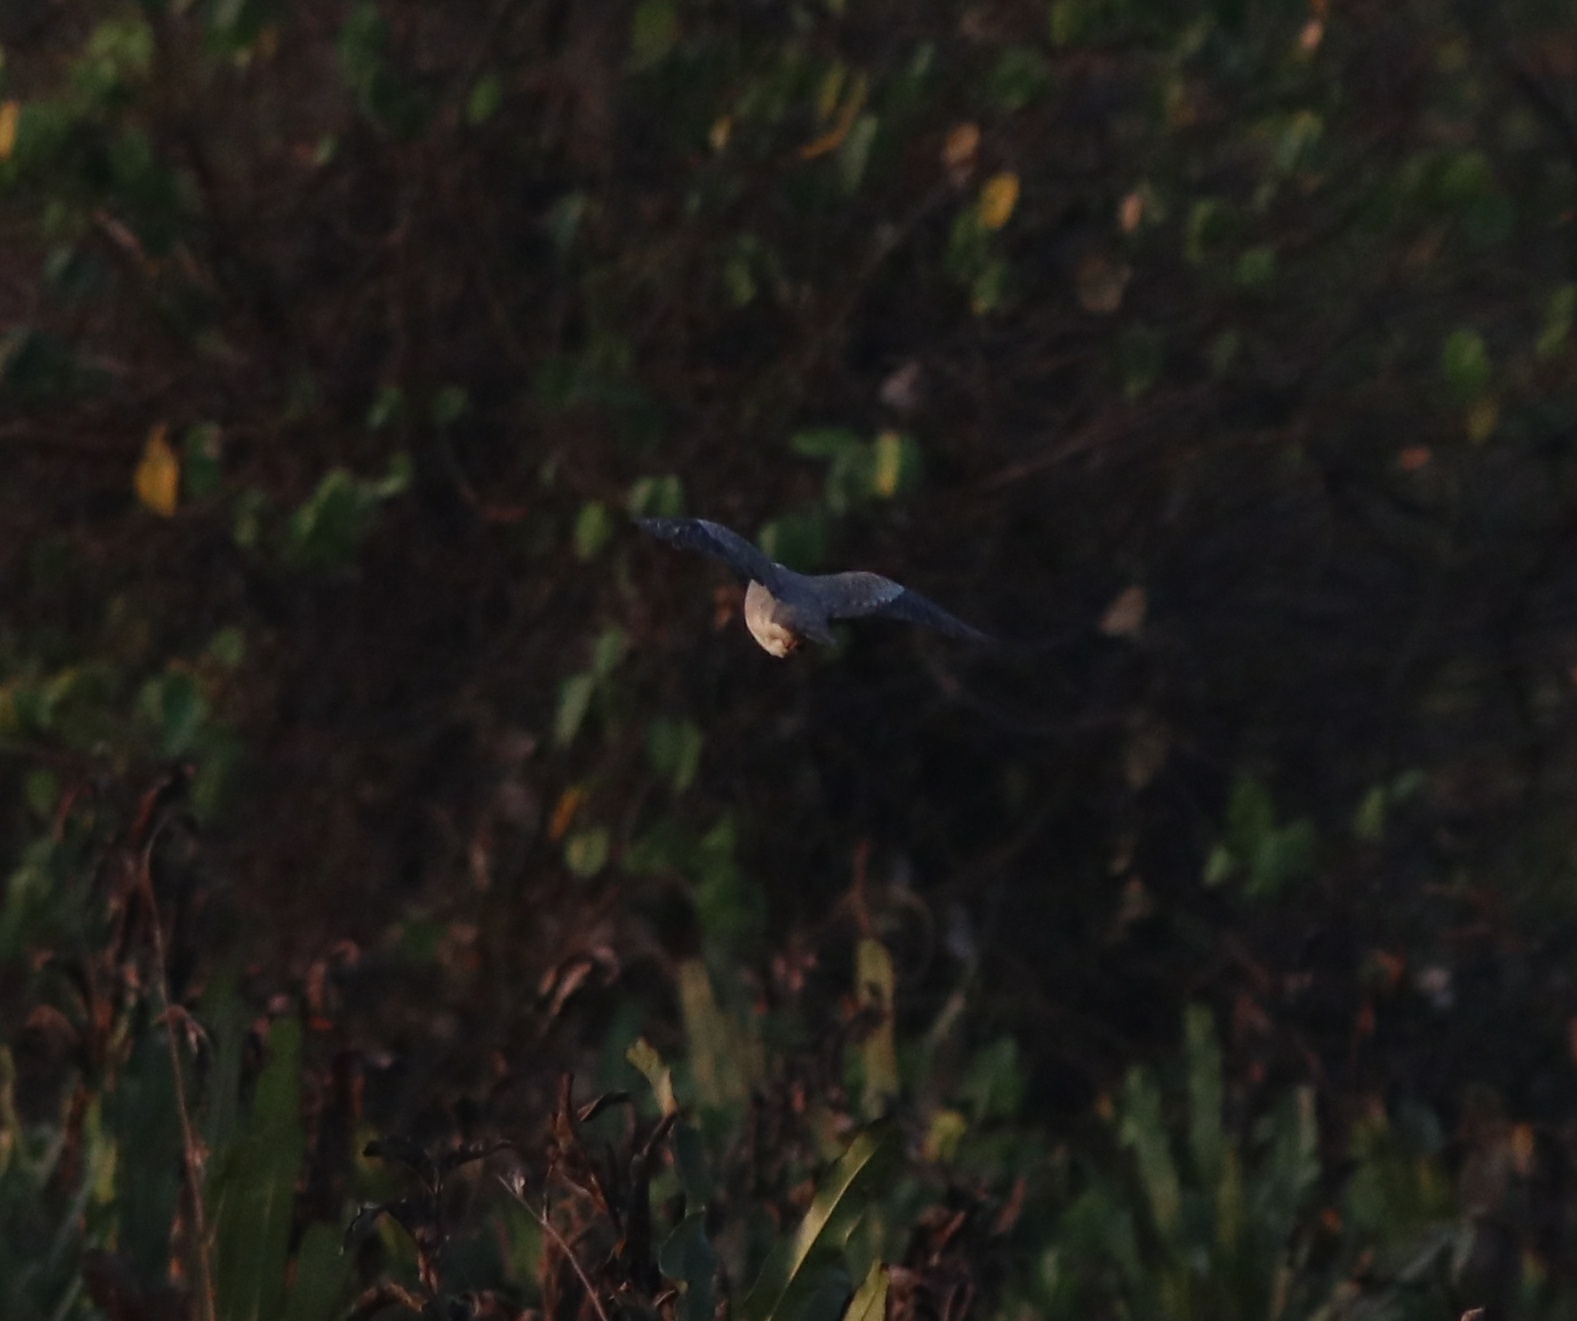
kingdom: Animalia
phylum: Chordata
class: Aves
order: Columbiformes
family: Columbidae
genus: Spilopelia
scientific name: Spilopelia chinensis
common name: Spotted dove
